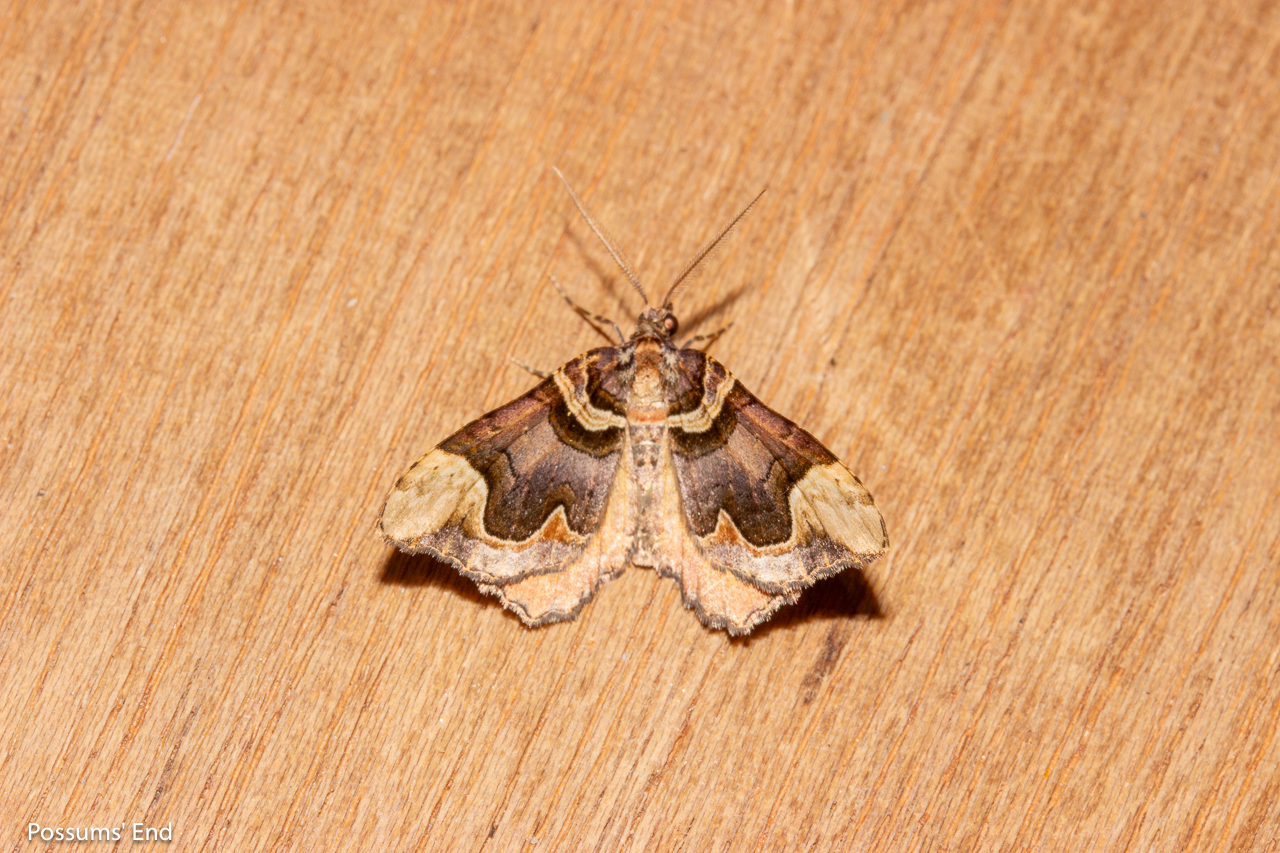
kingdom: Animalia
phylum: Arthropoda
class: Insecta
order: Lepidoptera
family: Geometridae
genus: Asaphodes
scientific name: Asaphodes chlamydota
